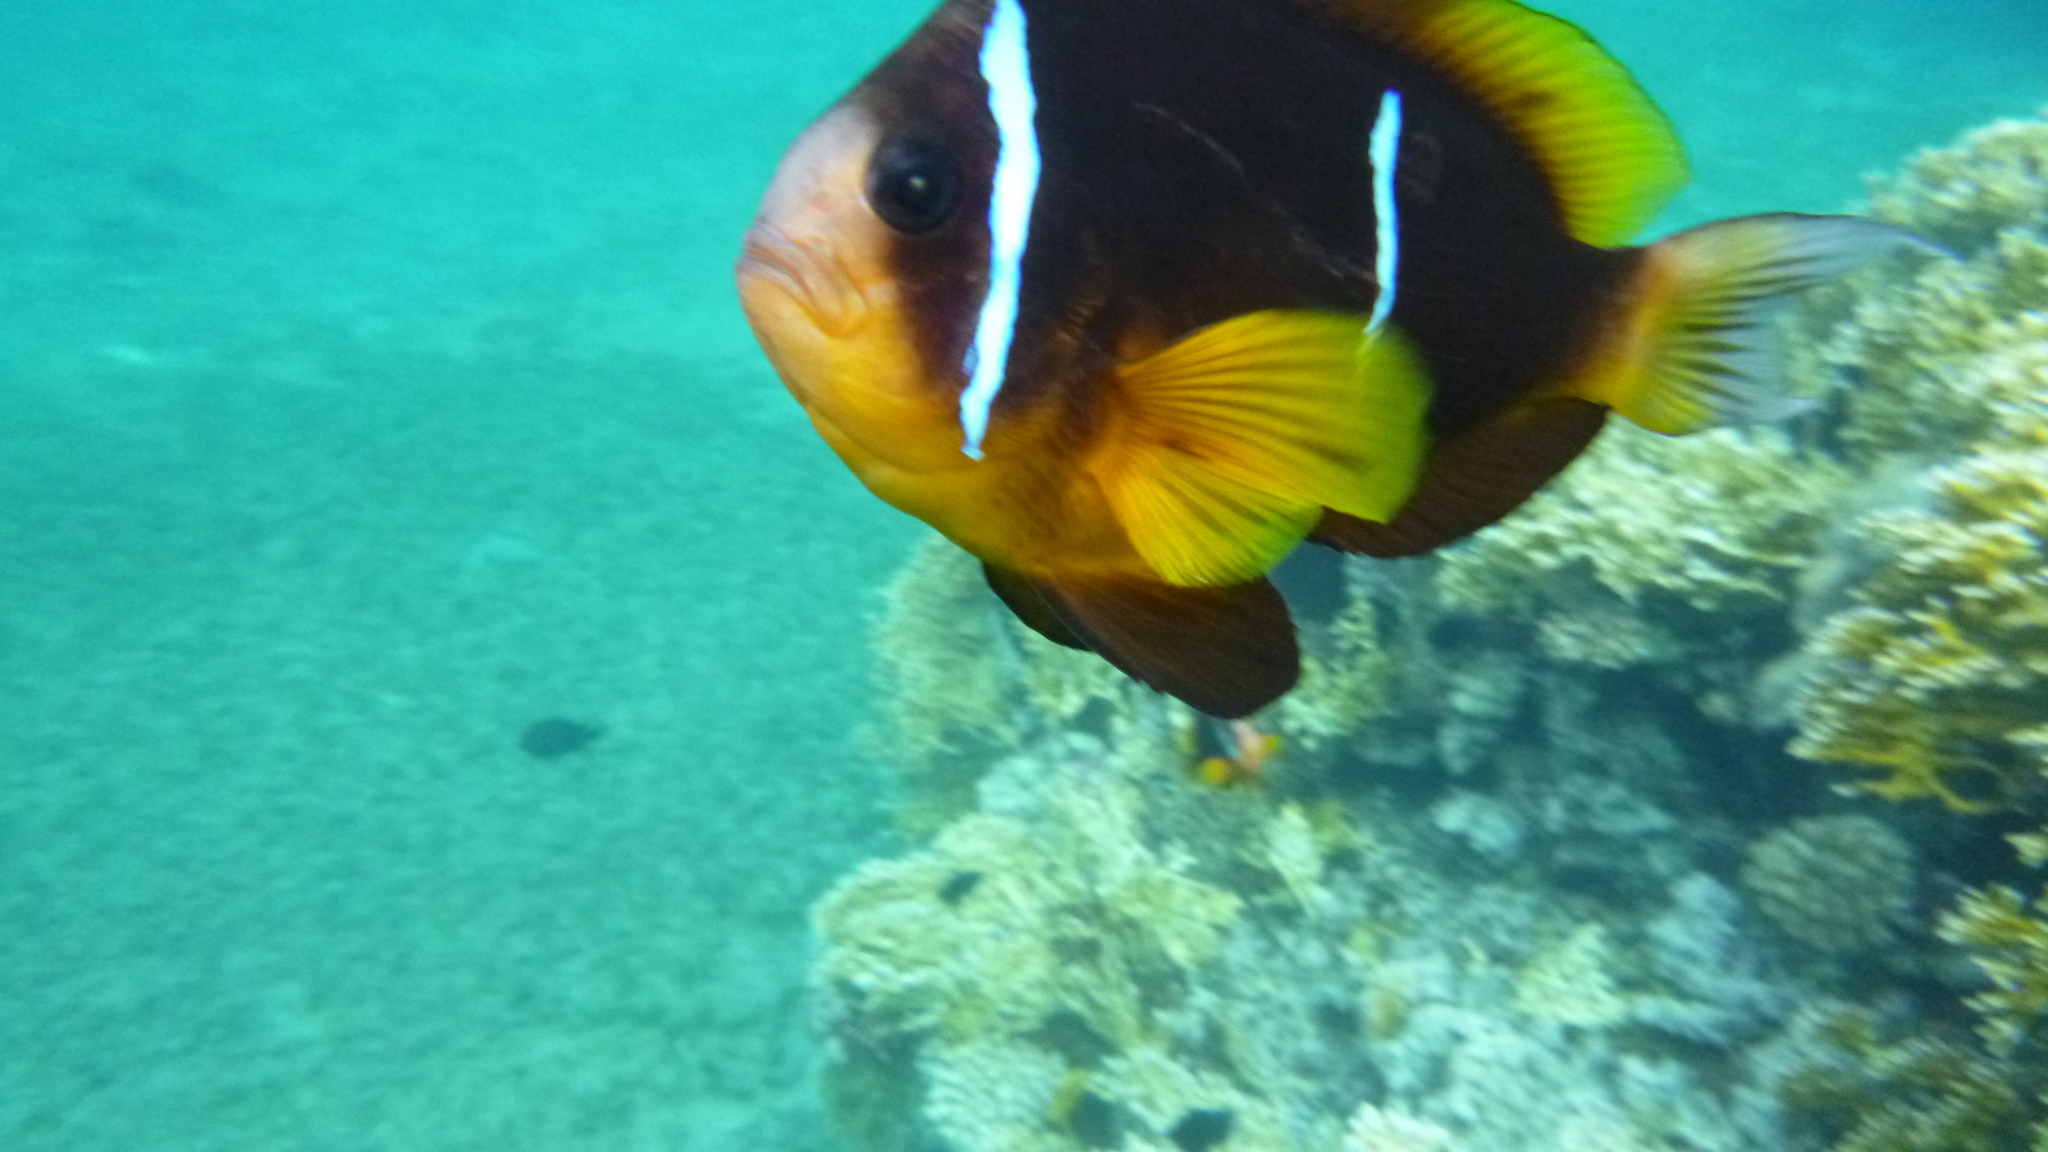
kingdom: Animalia
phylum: Chordata
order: Perciformes
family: Pomacentridae
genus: Amphiprion
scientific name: Amphiprion bicinctus
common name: Two-banded anemonefish
